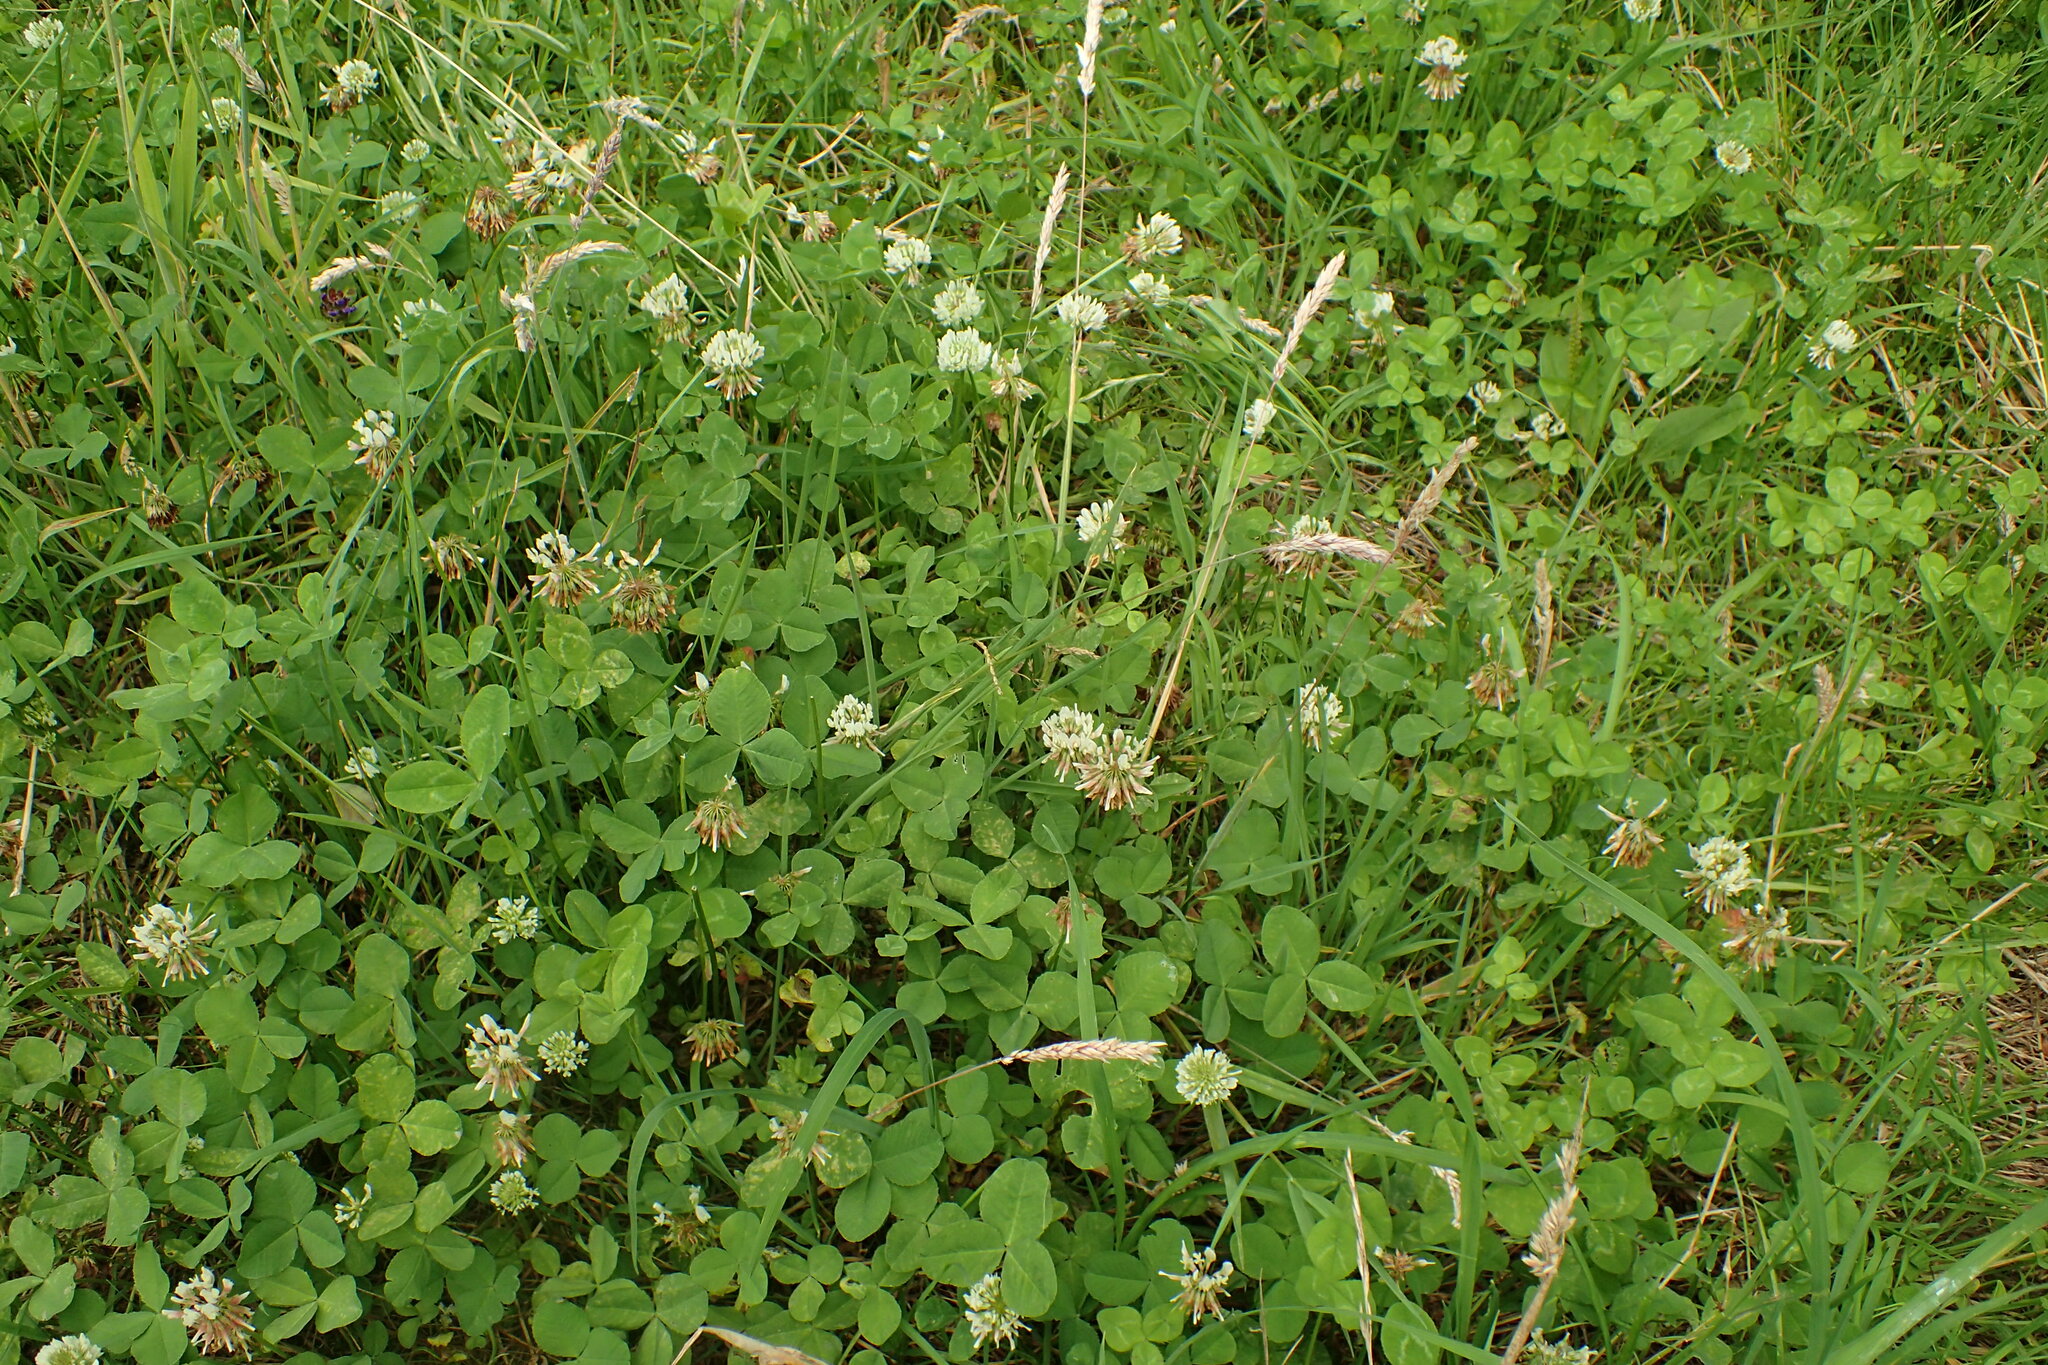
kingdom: Plantae
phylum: Tracheophyta
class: Magnoliopsida
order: Fabales
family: Fabaceae
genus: Trifolium
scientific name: Trifolium repens
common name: White clover
